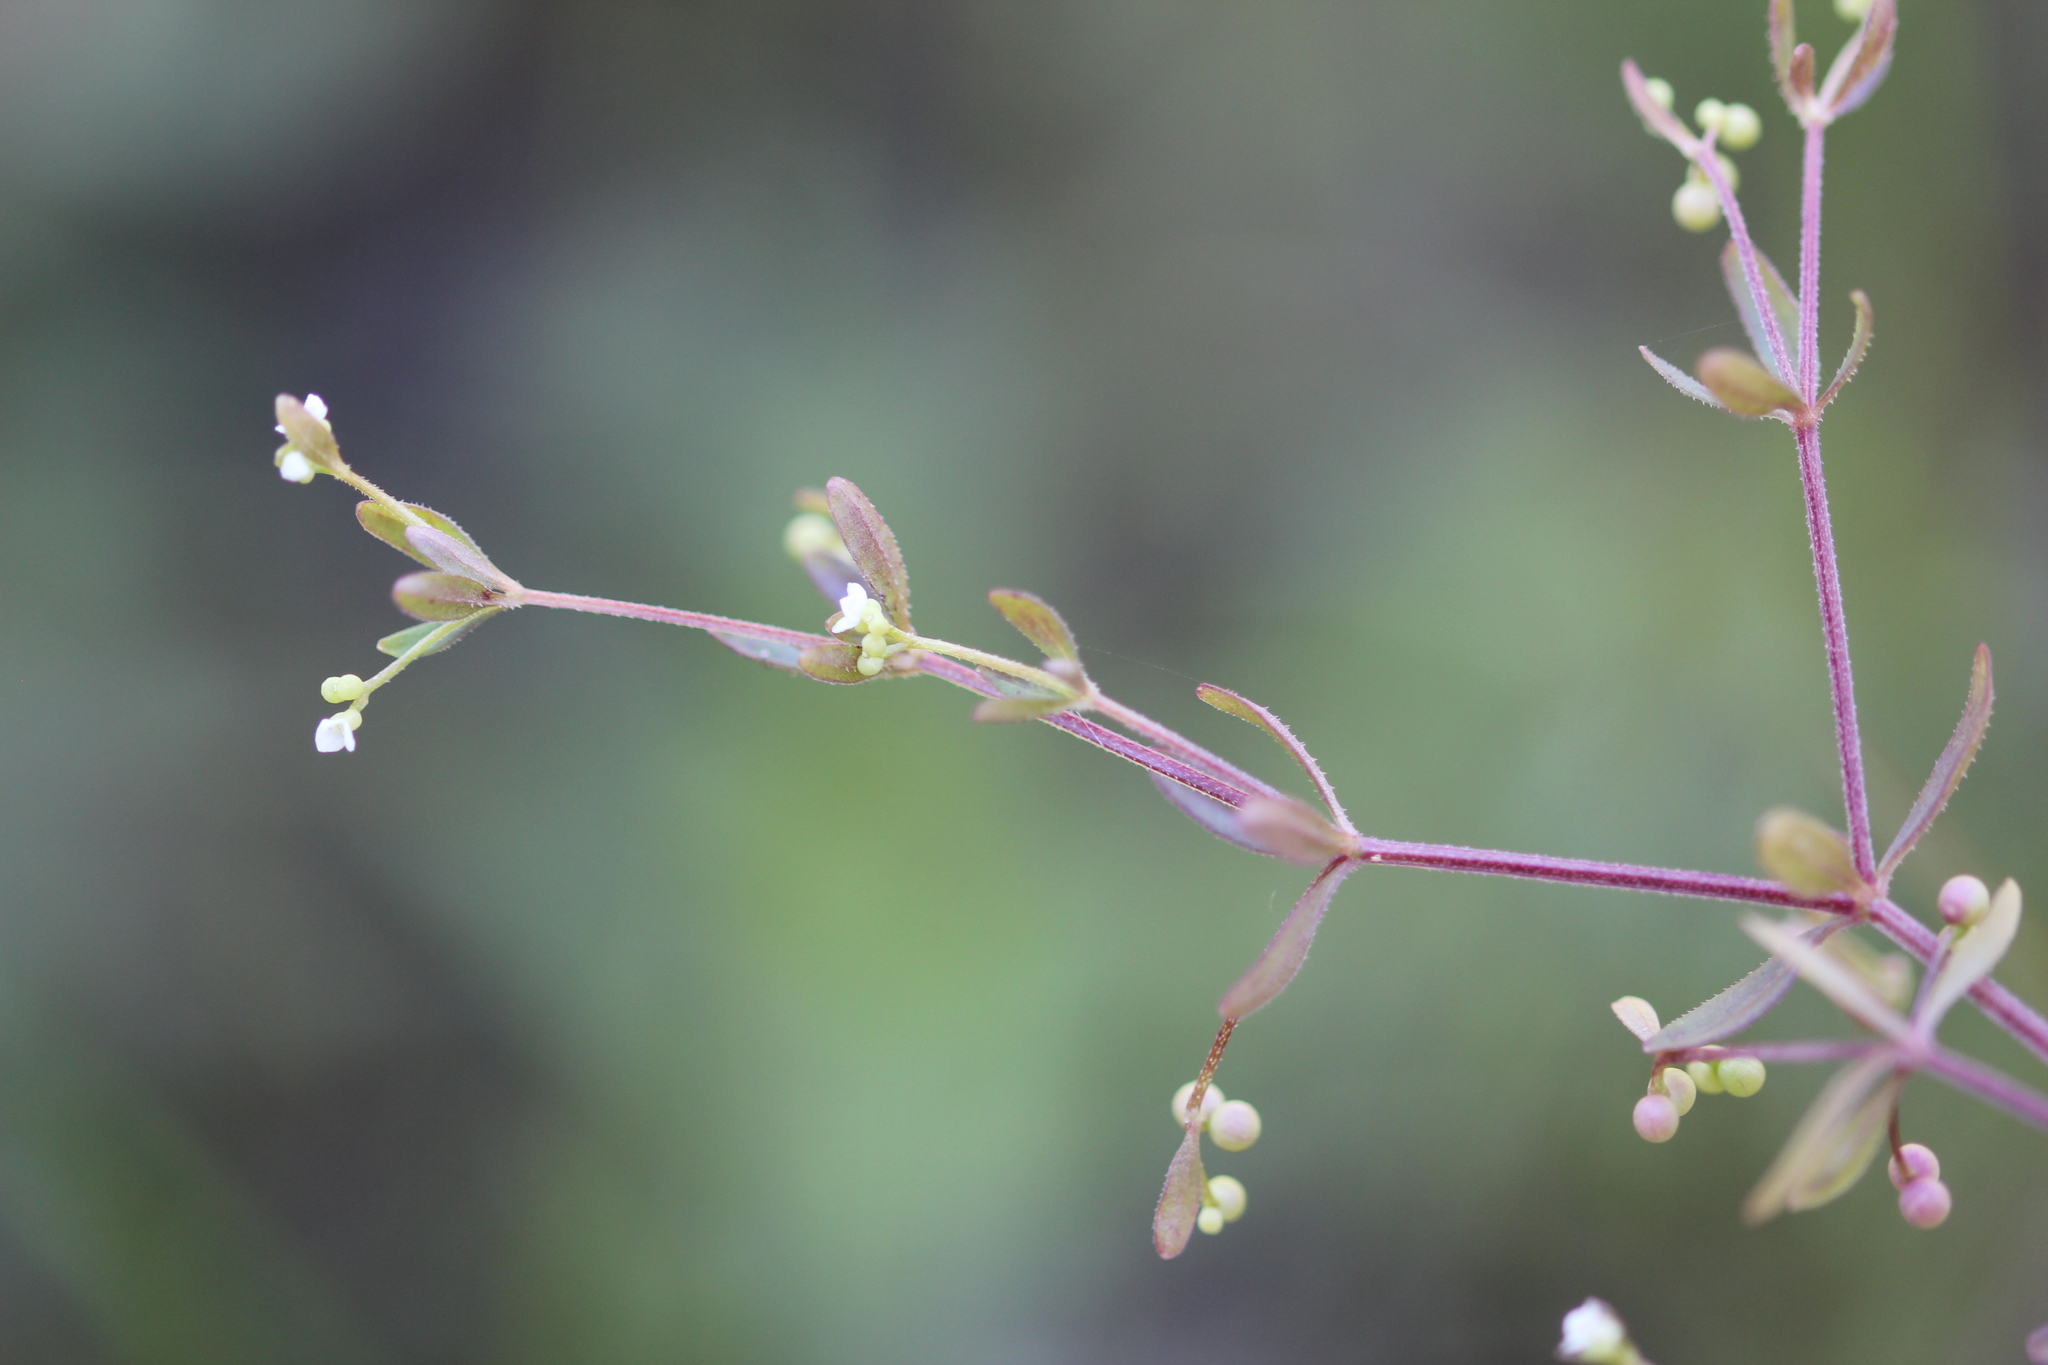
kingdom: Plantae
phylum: Tracheophyta
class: Magnoliopsida
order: Gentianales
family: Rubiaceae
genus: Galium
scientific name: Galium trifidum
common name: Small bedstraw
